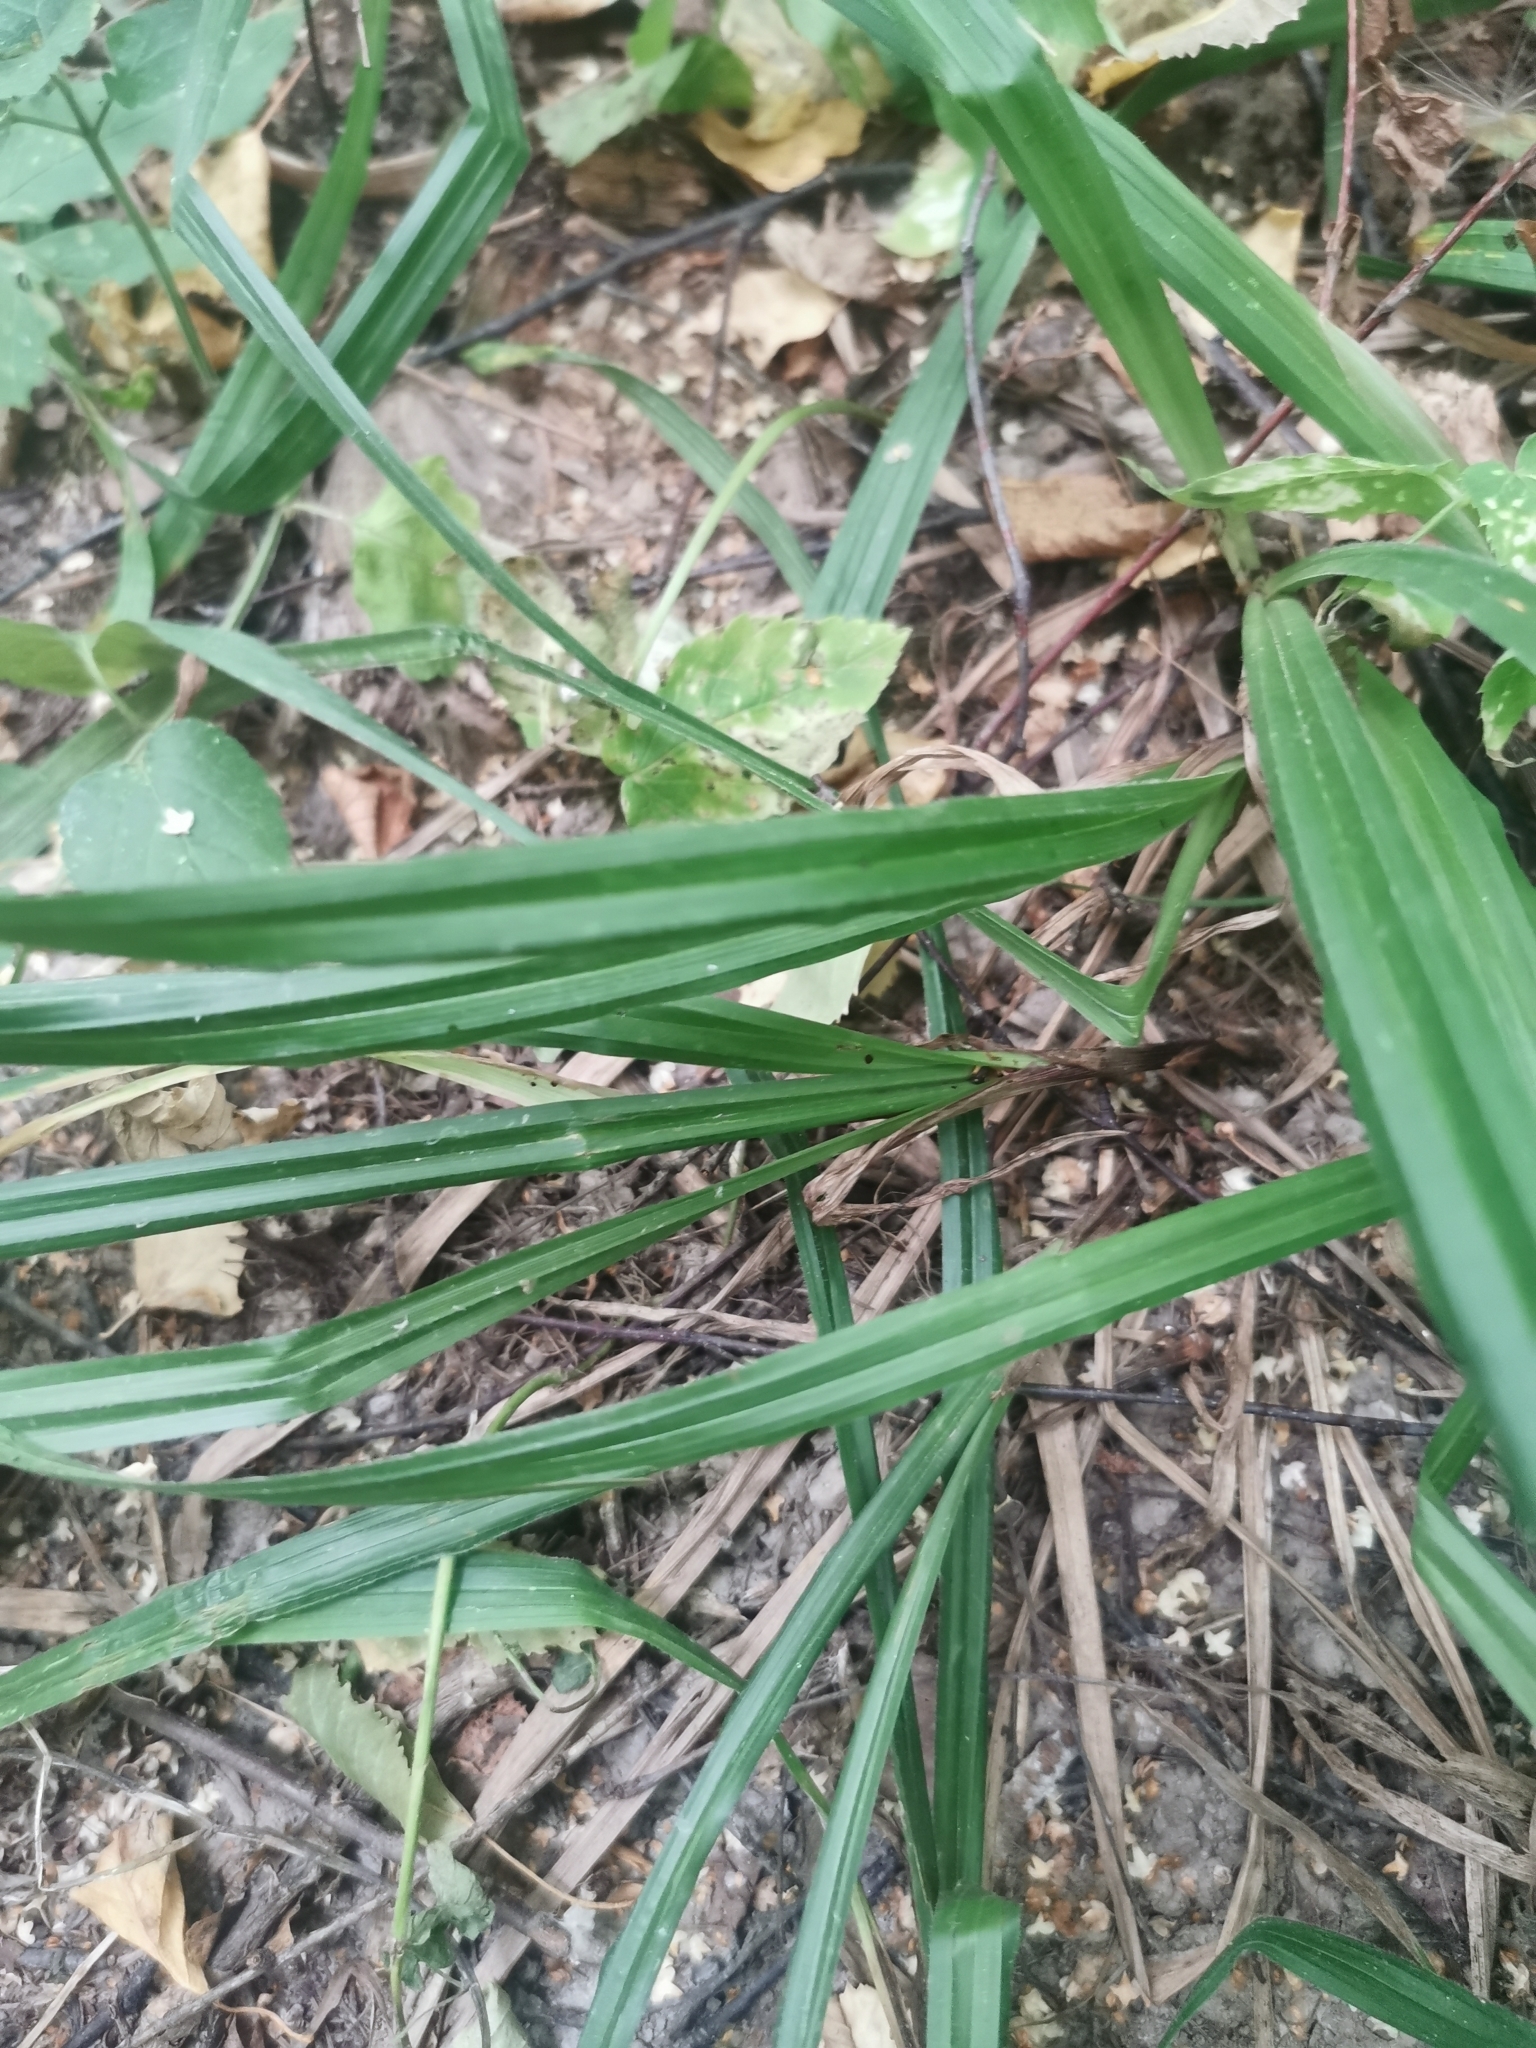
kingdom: Plantae
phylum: Tracheophyta
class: Liliopsida
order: Poales
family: Cyperaceae
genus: Carex
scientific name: Carex pilosa
